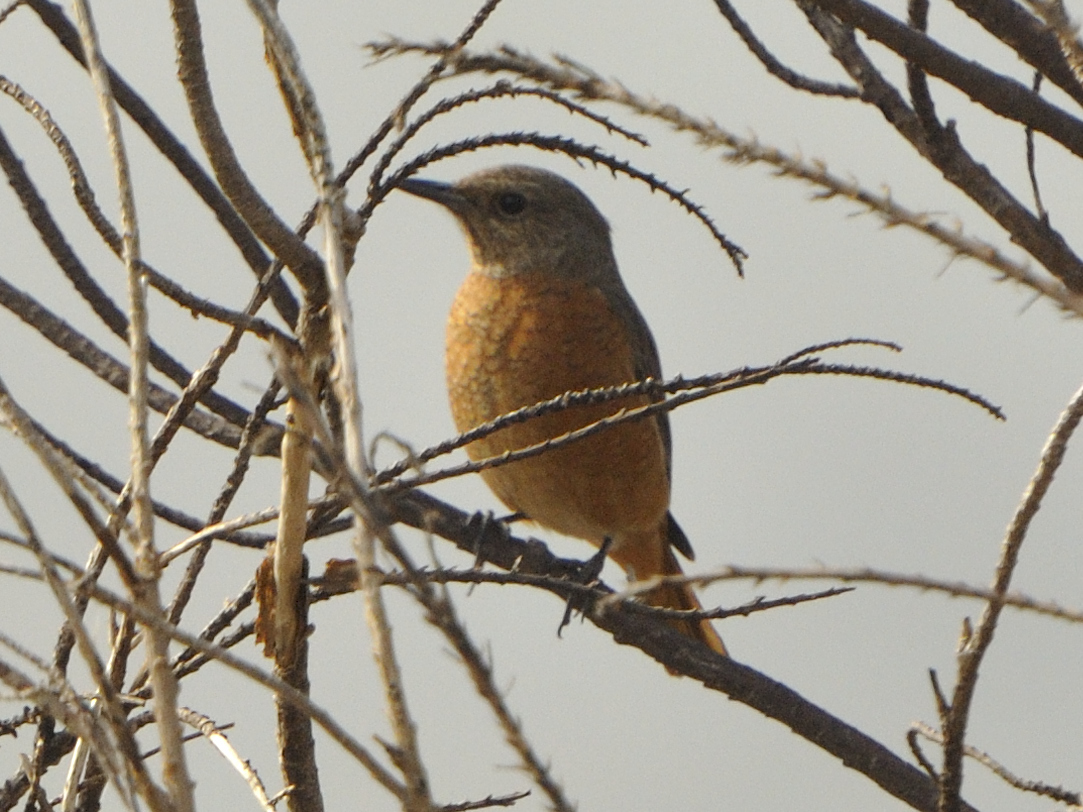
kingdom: Animalia
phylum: Chordata
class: Aves
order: Passeriformes
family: Muscicapidae
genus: Monticola
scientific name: Monticola rupestris
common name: Cape rock thrush
